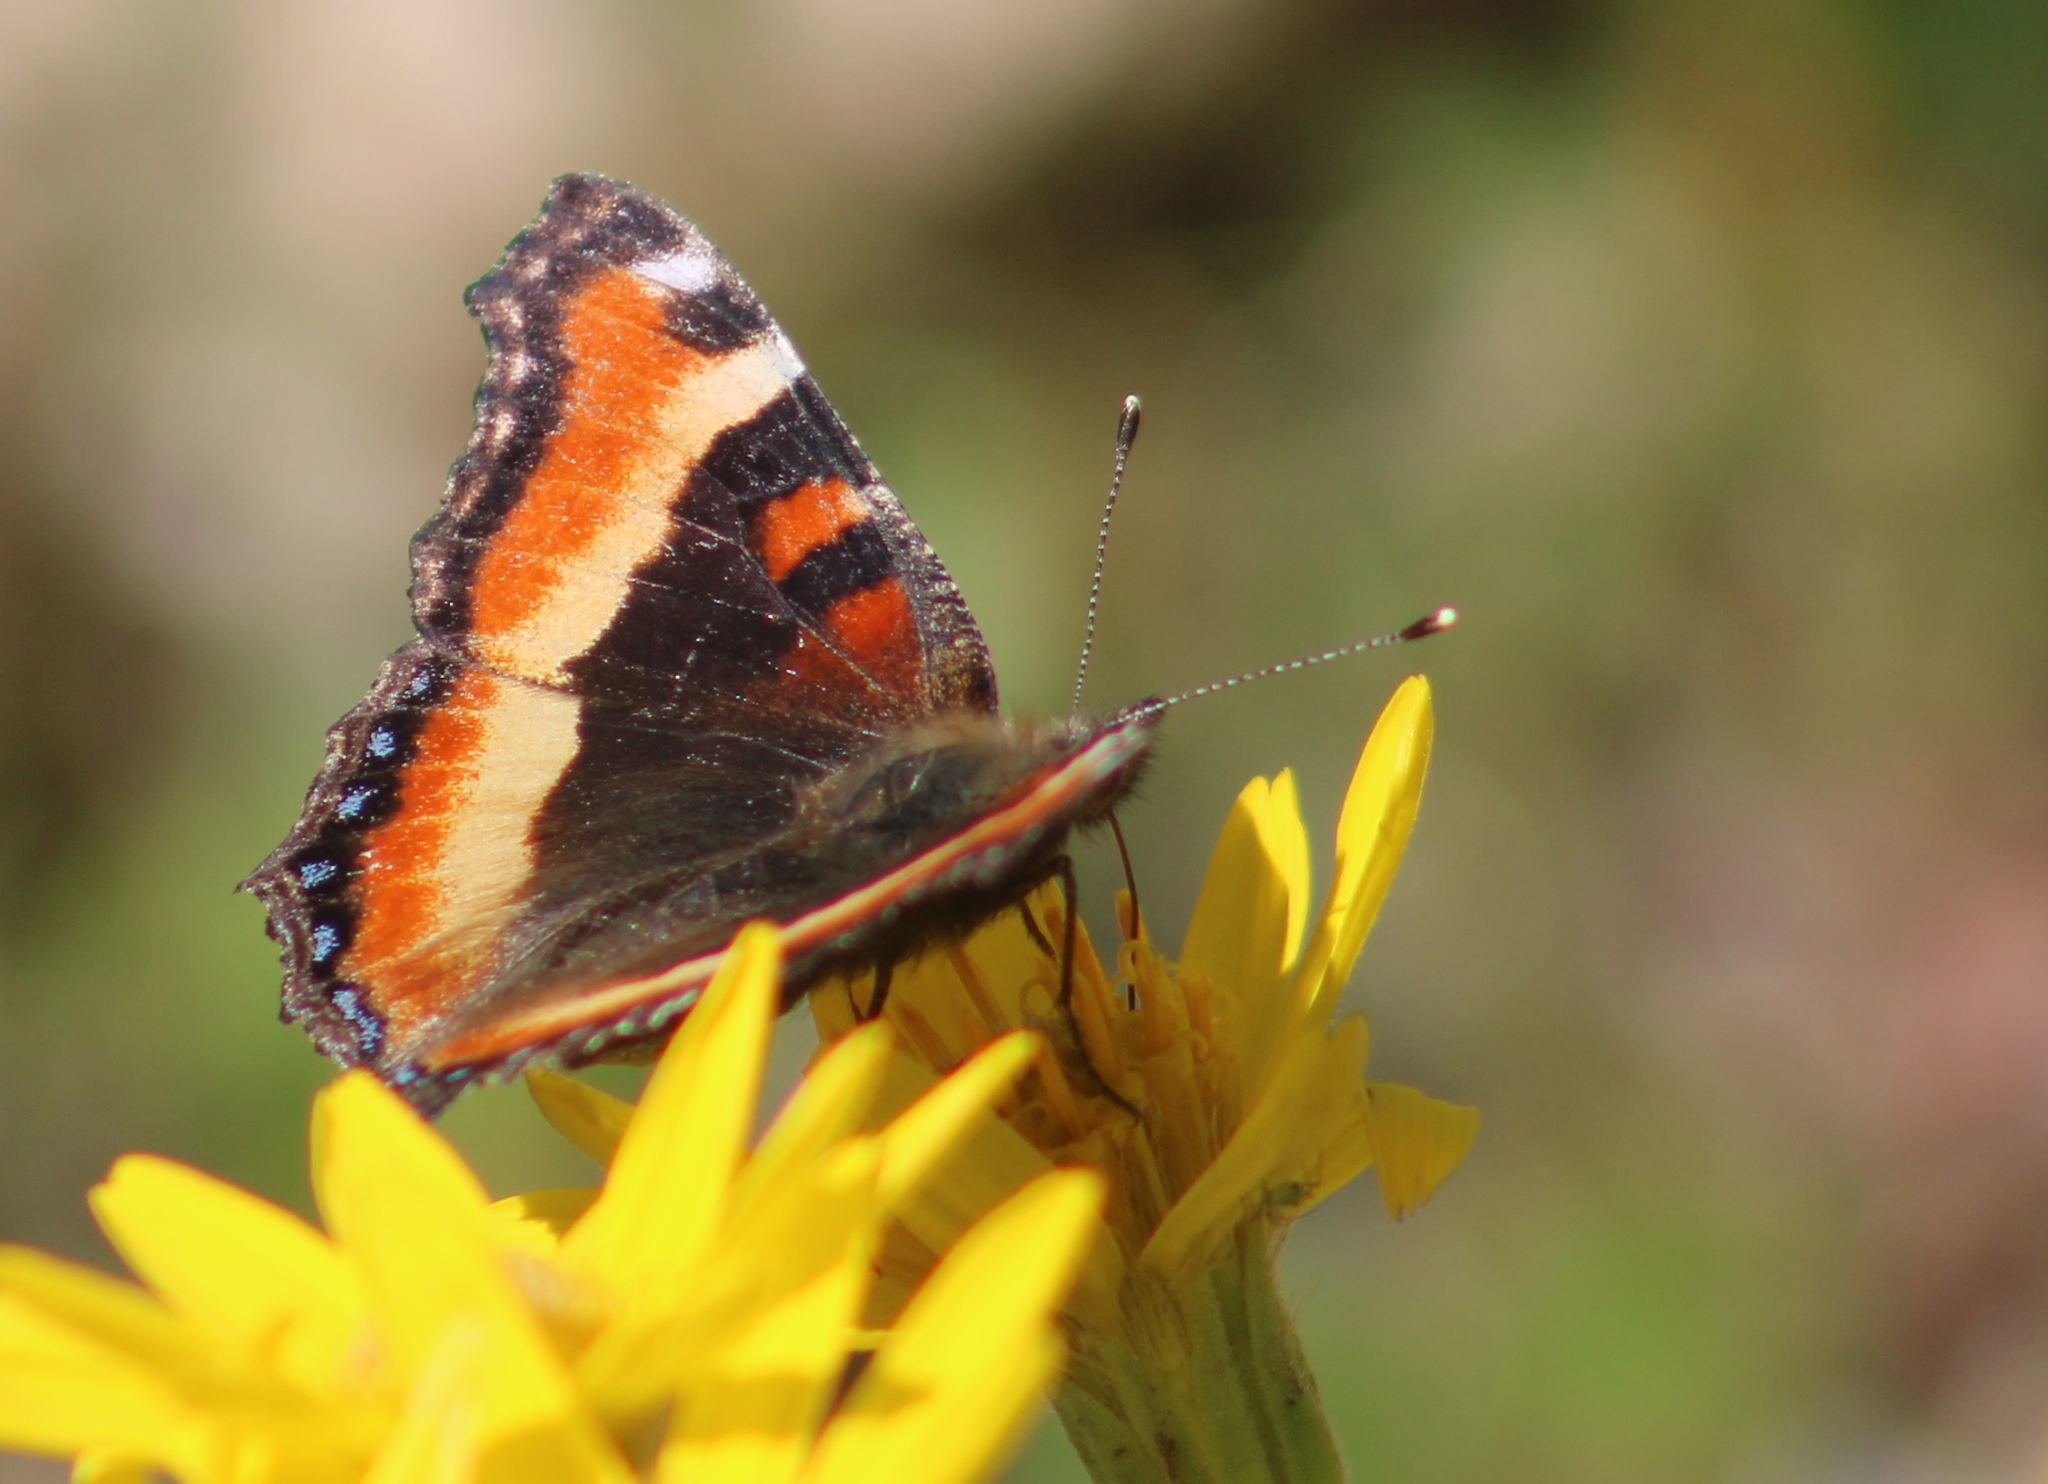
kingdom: Animalia
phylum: Arthropoda
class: Insecta
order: Lepidoptera
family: Nymphalidae
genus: Aglais
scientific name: Aglais milberti
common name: Milbert's tortoiseshell
